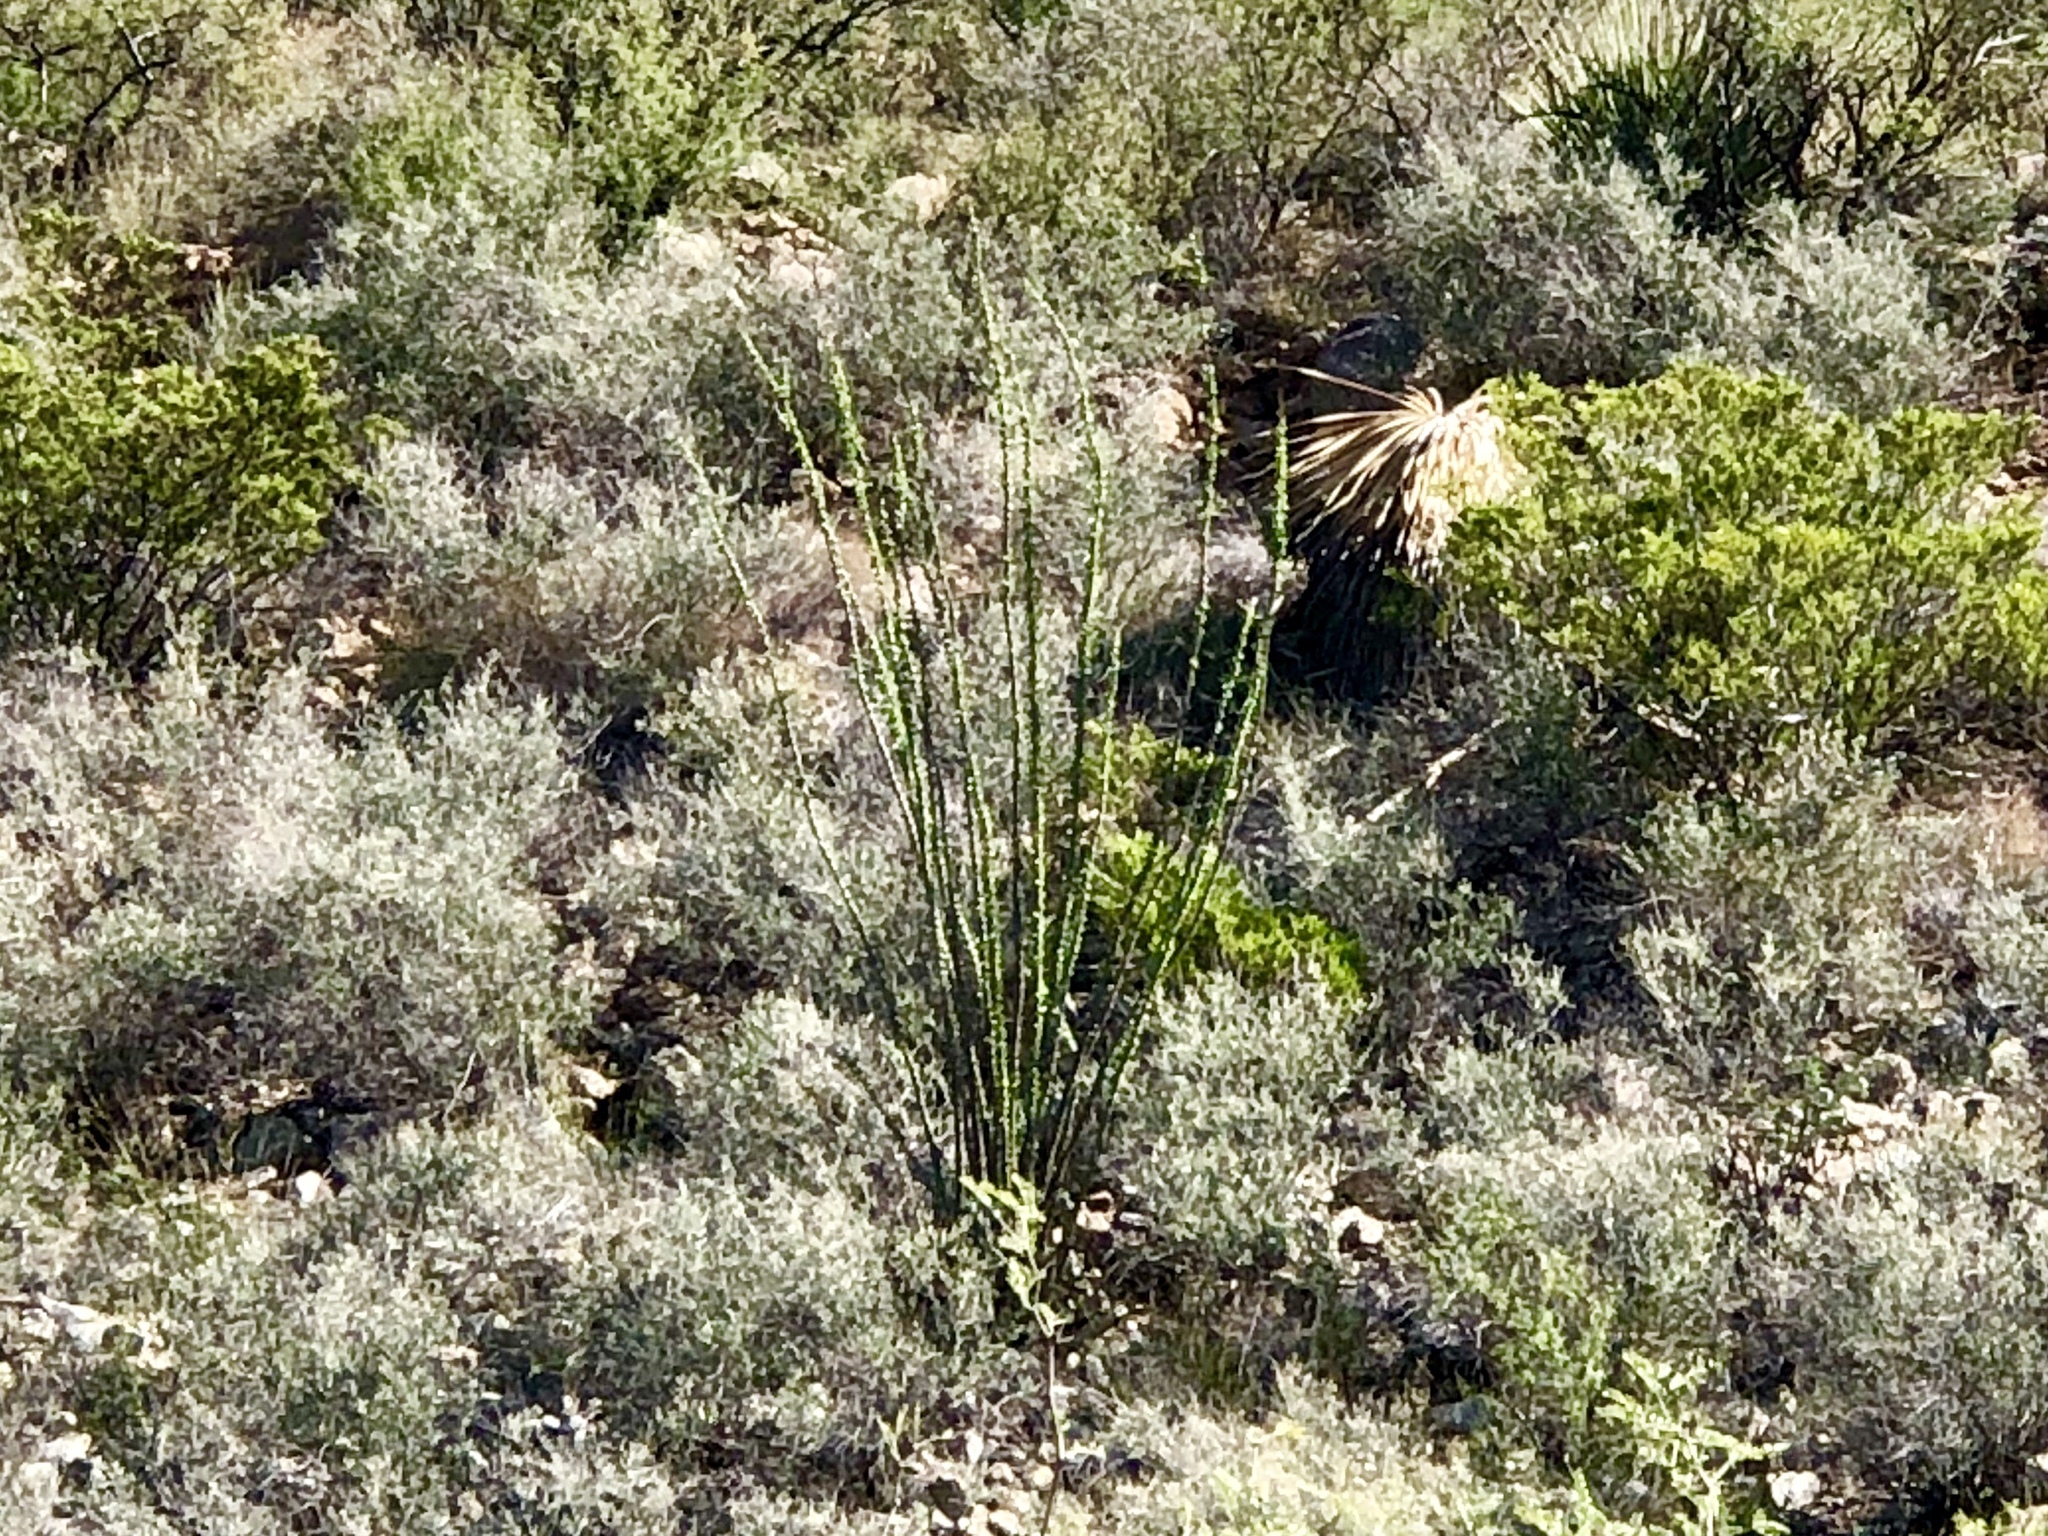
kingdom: Plantae
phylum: Tracheophyta
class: Magnoliopsida
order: Ericales
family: Fouquieriaceae
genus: Fouquieria
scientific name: Fouquieria splendens
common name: Vine-cactus
